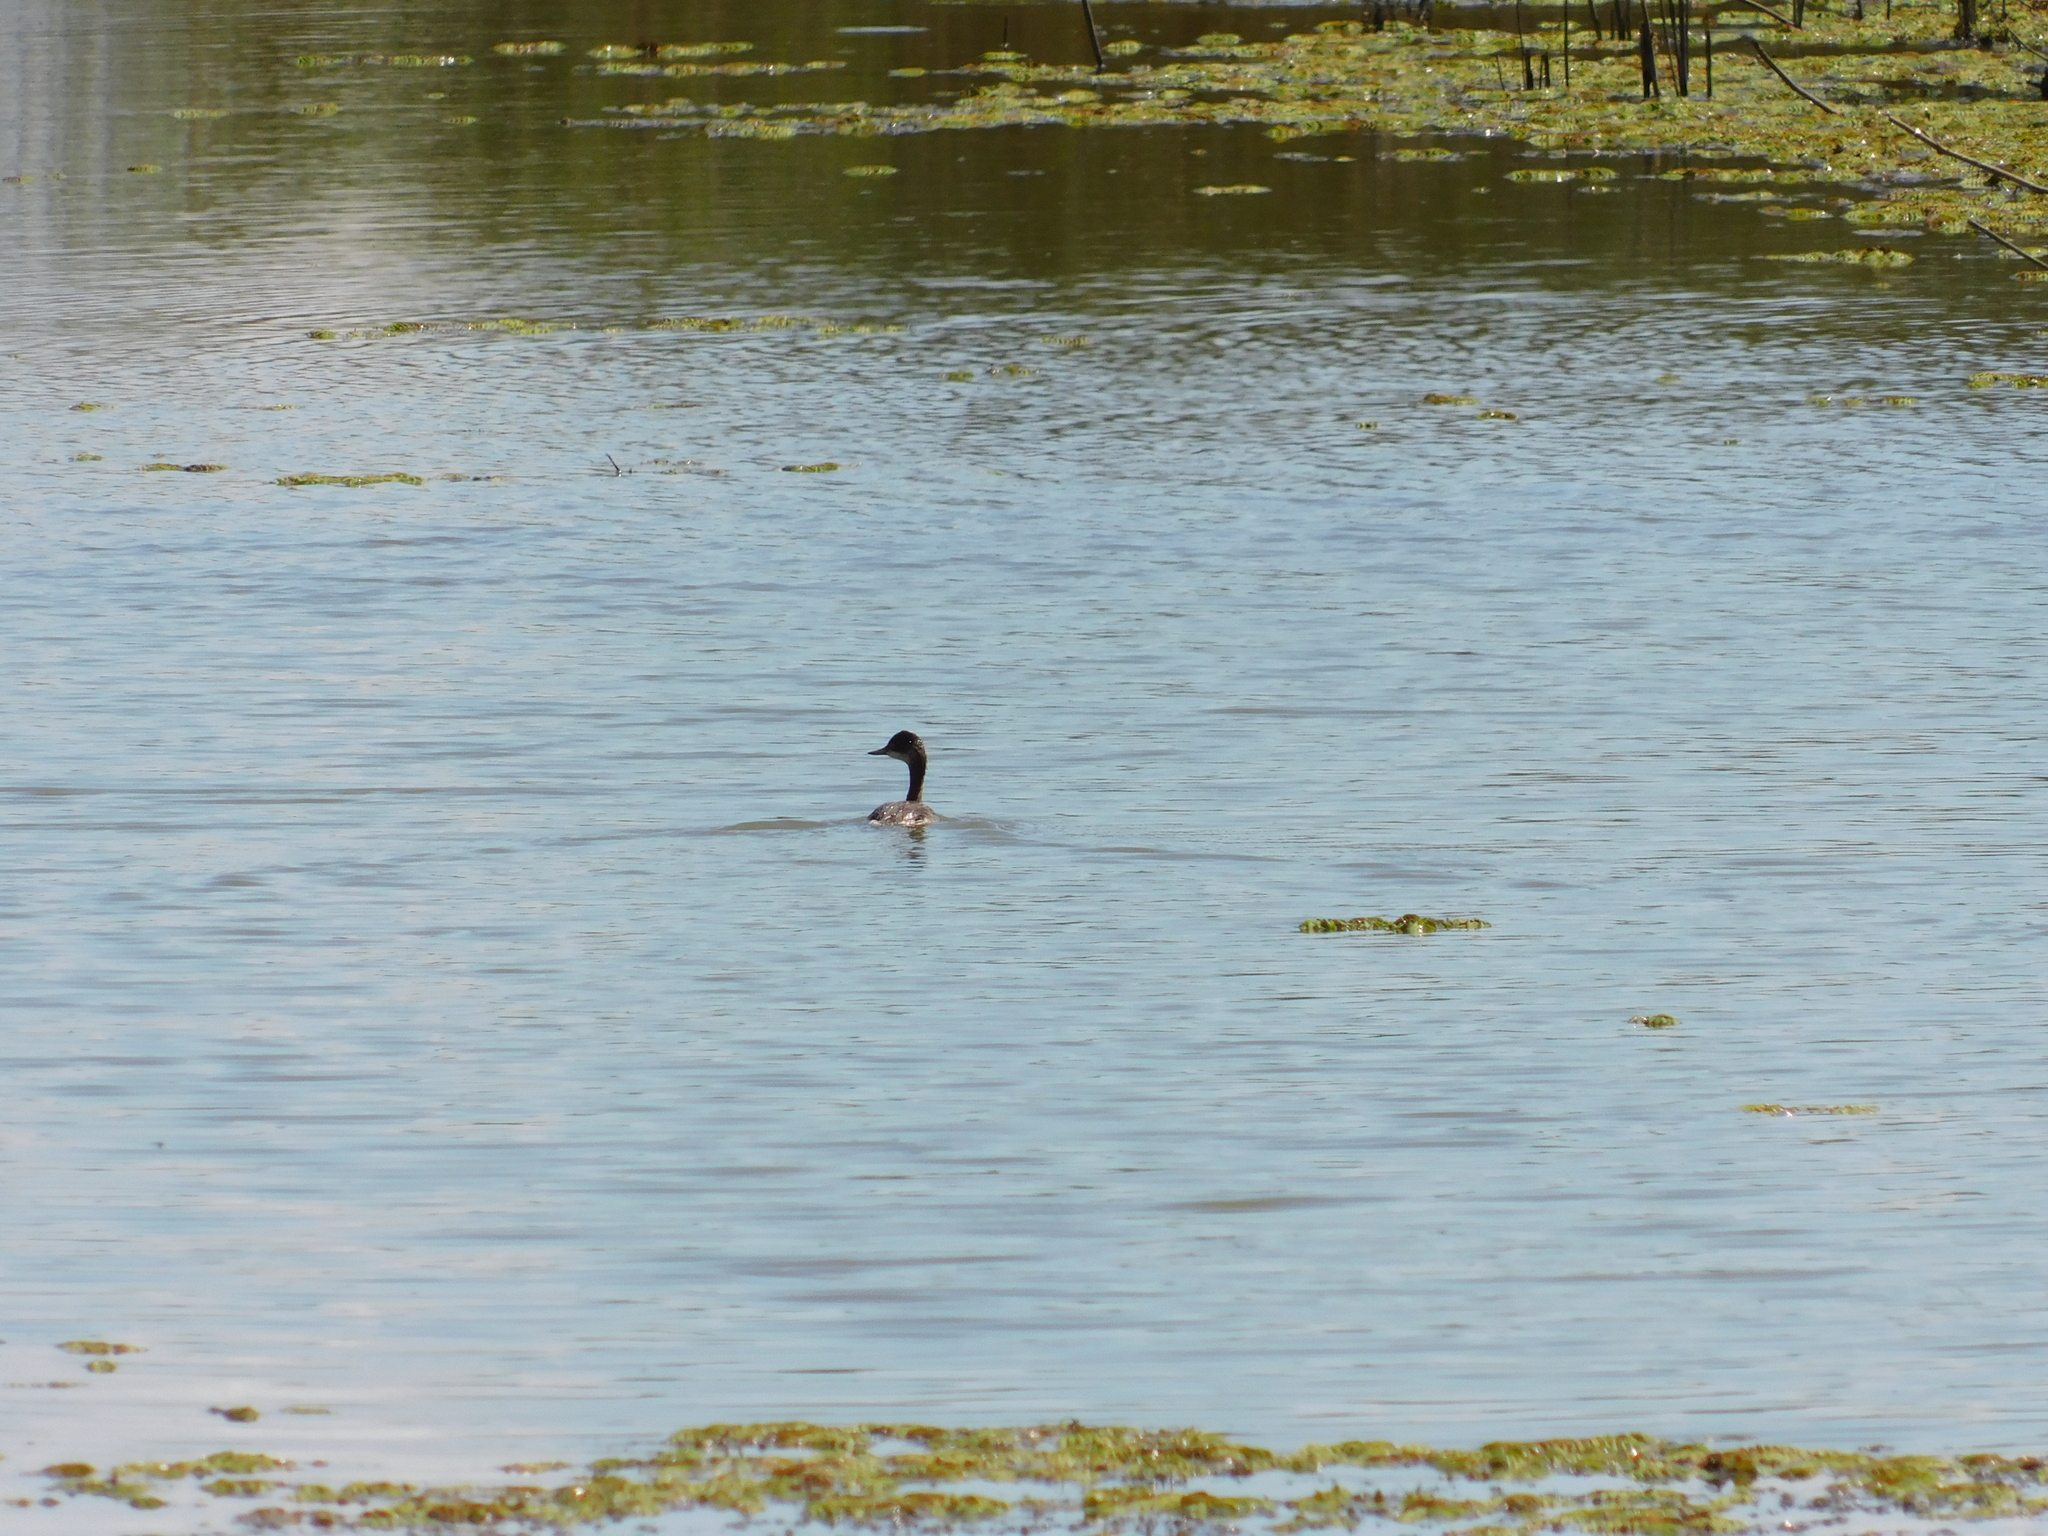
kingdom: Animalia
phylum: Chordata
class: Aves
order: Podicipediformes
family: Podicipedidae
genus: Podiceps
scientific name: Podiceps nigricollis
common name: Black-necked grebe
